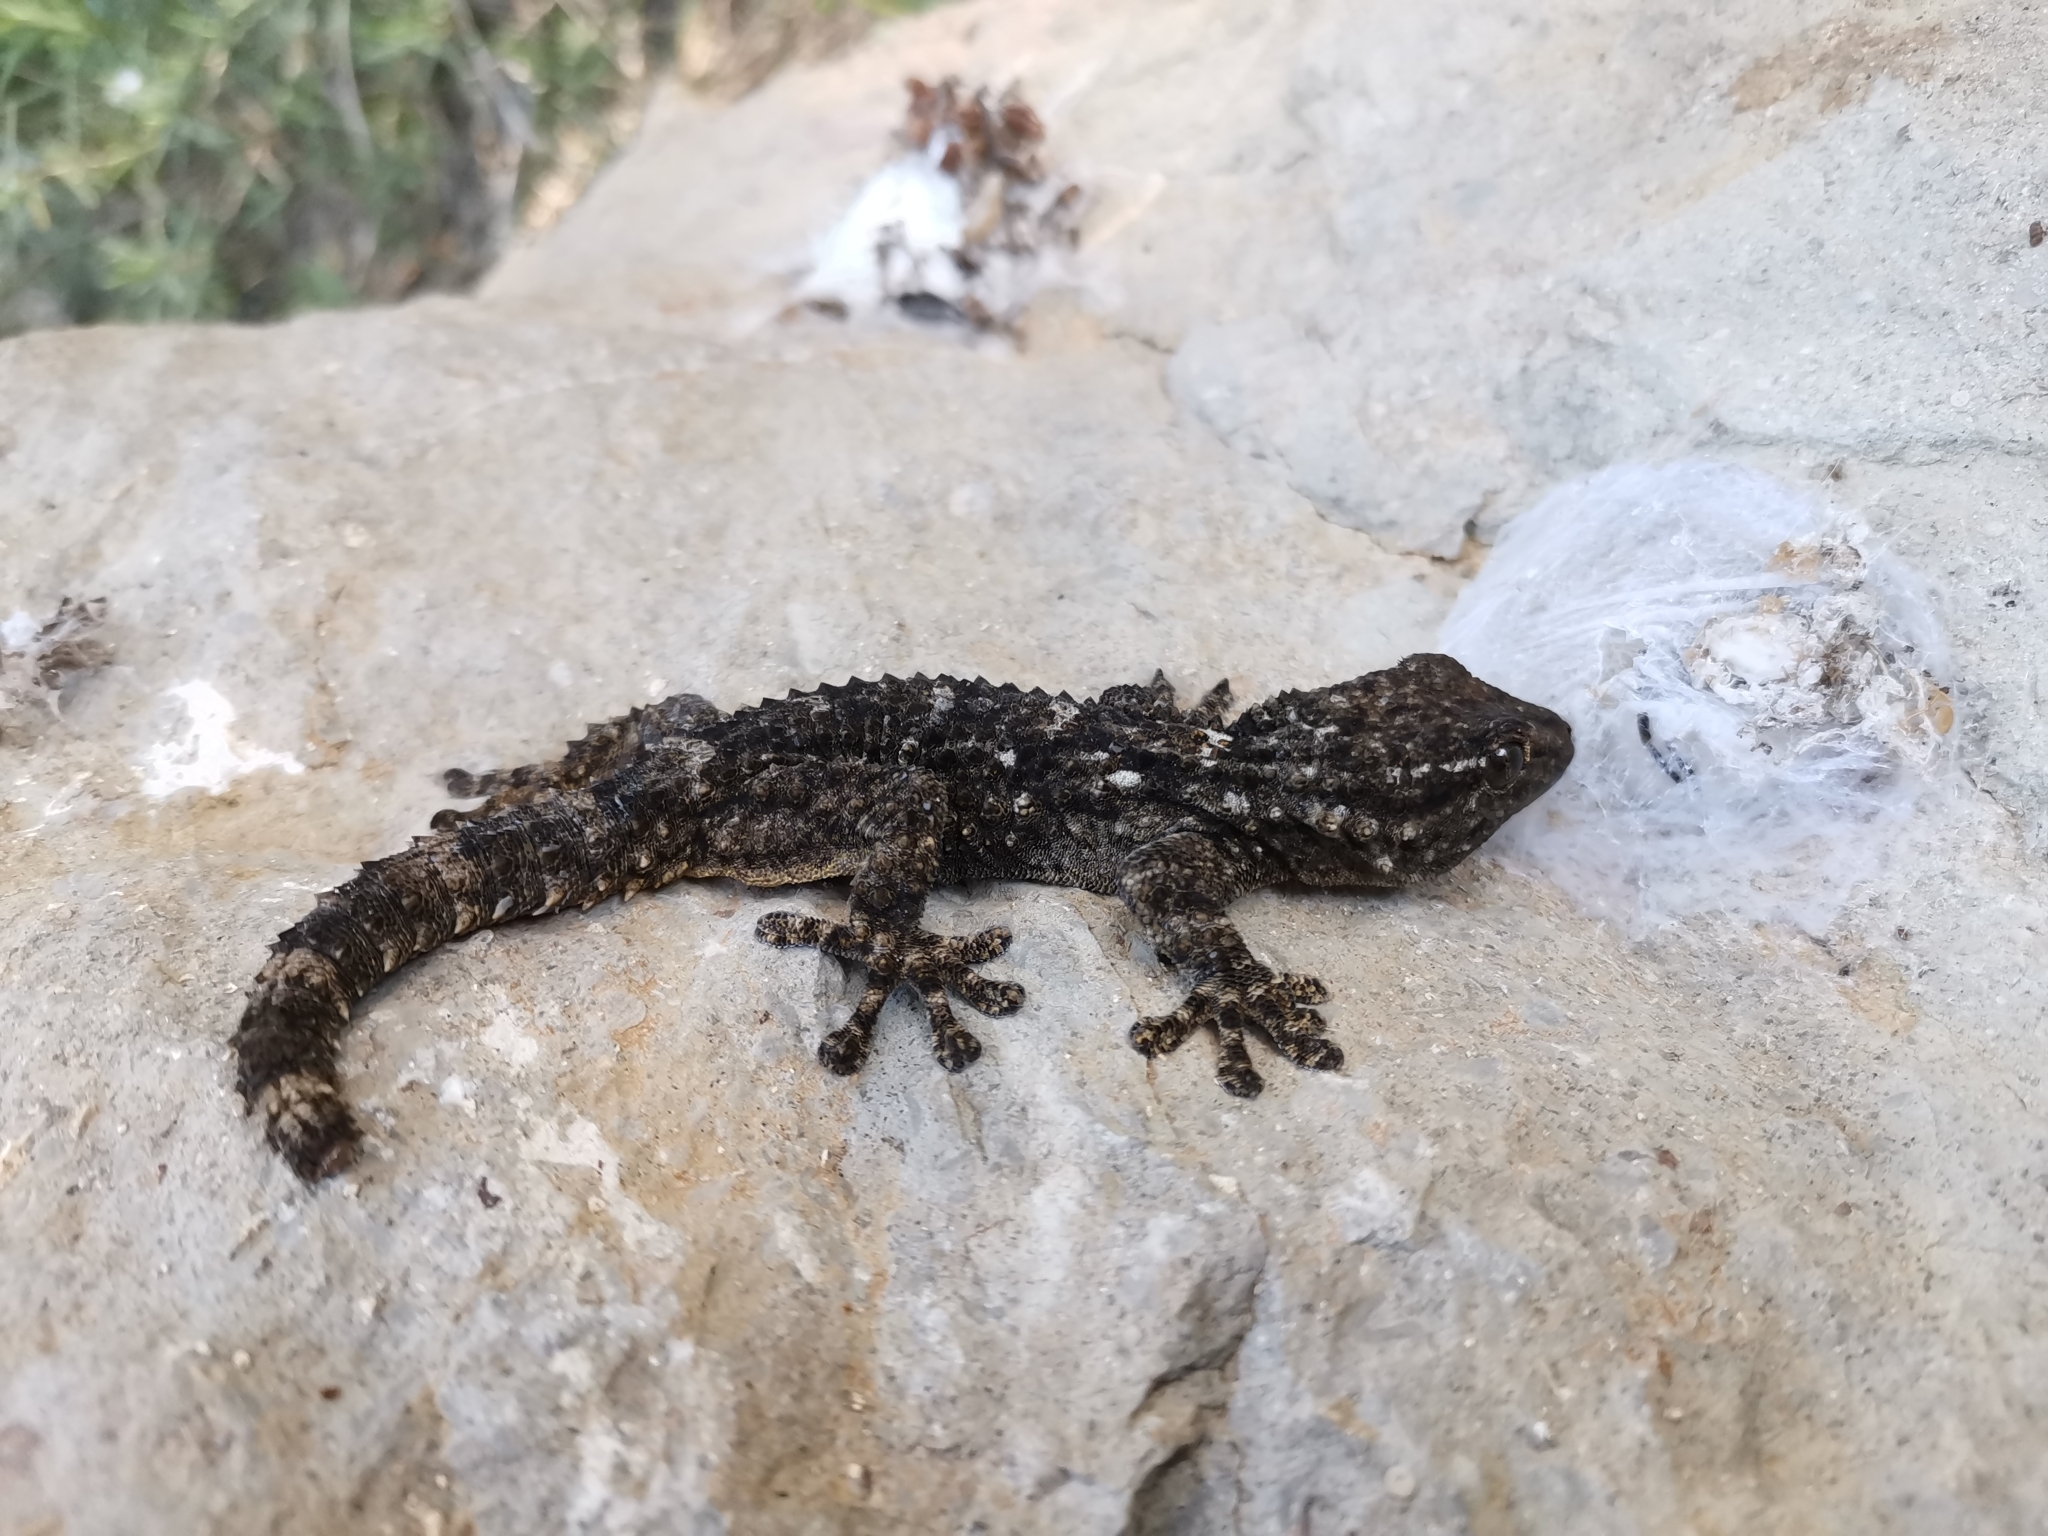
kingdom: Animalia
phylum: Chordata
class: Squamata
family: Phyllodactylidae
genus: Tarentola
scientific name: Tarentola mauritanica
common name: Moorish gecko
